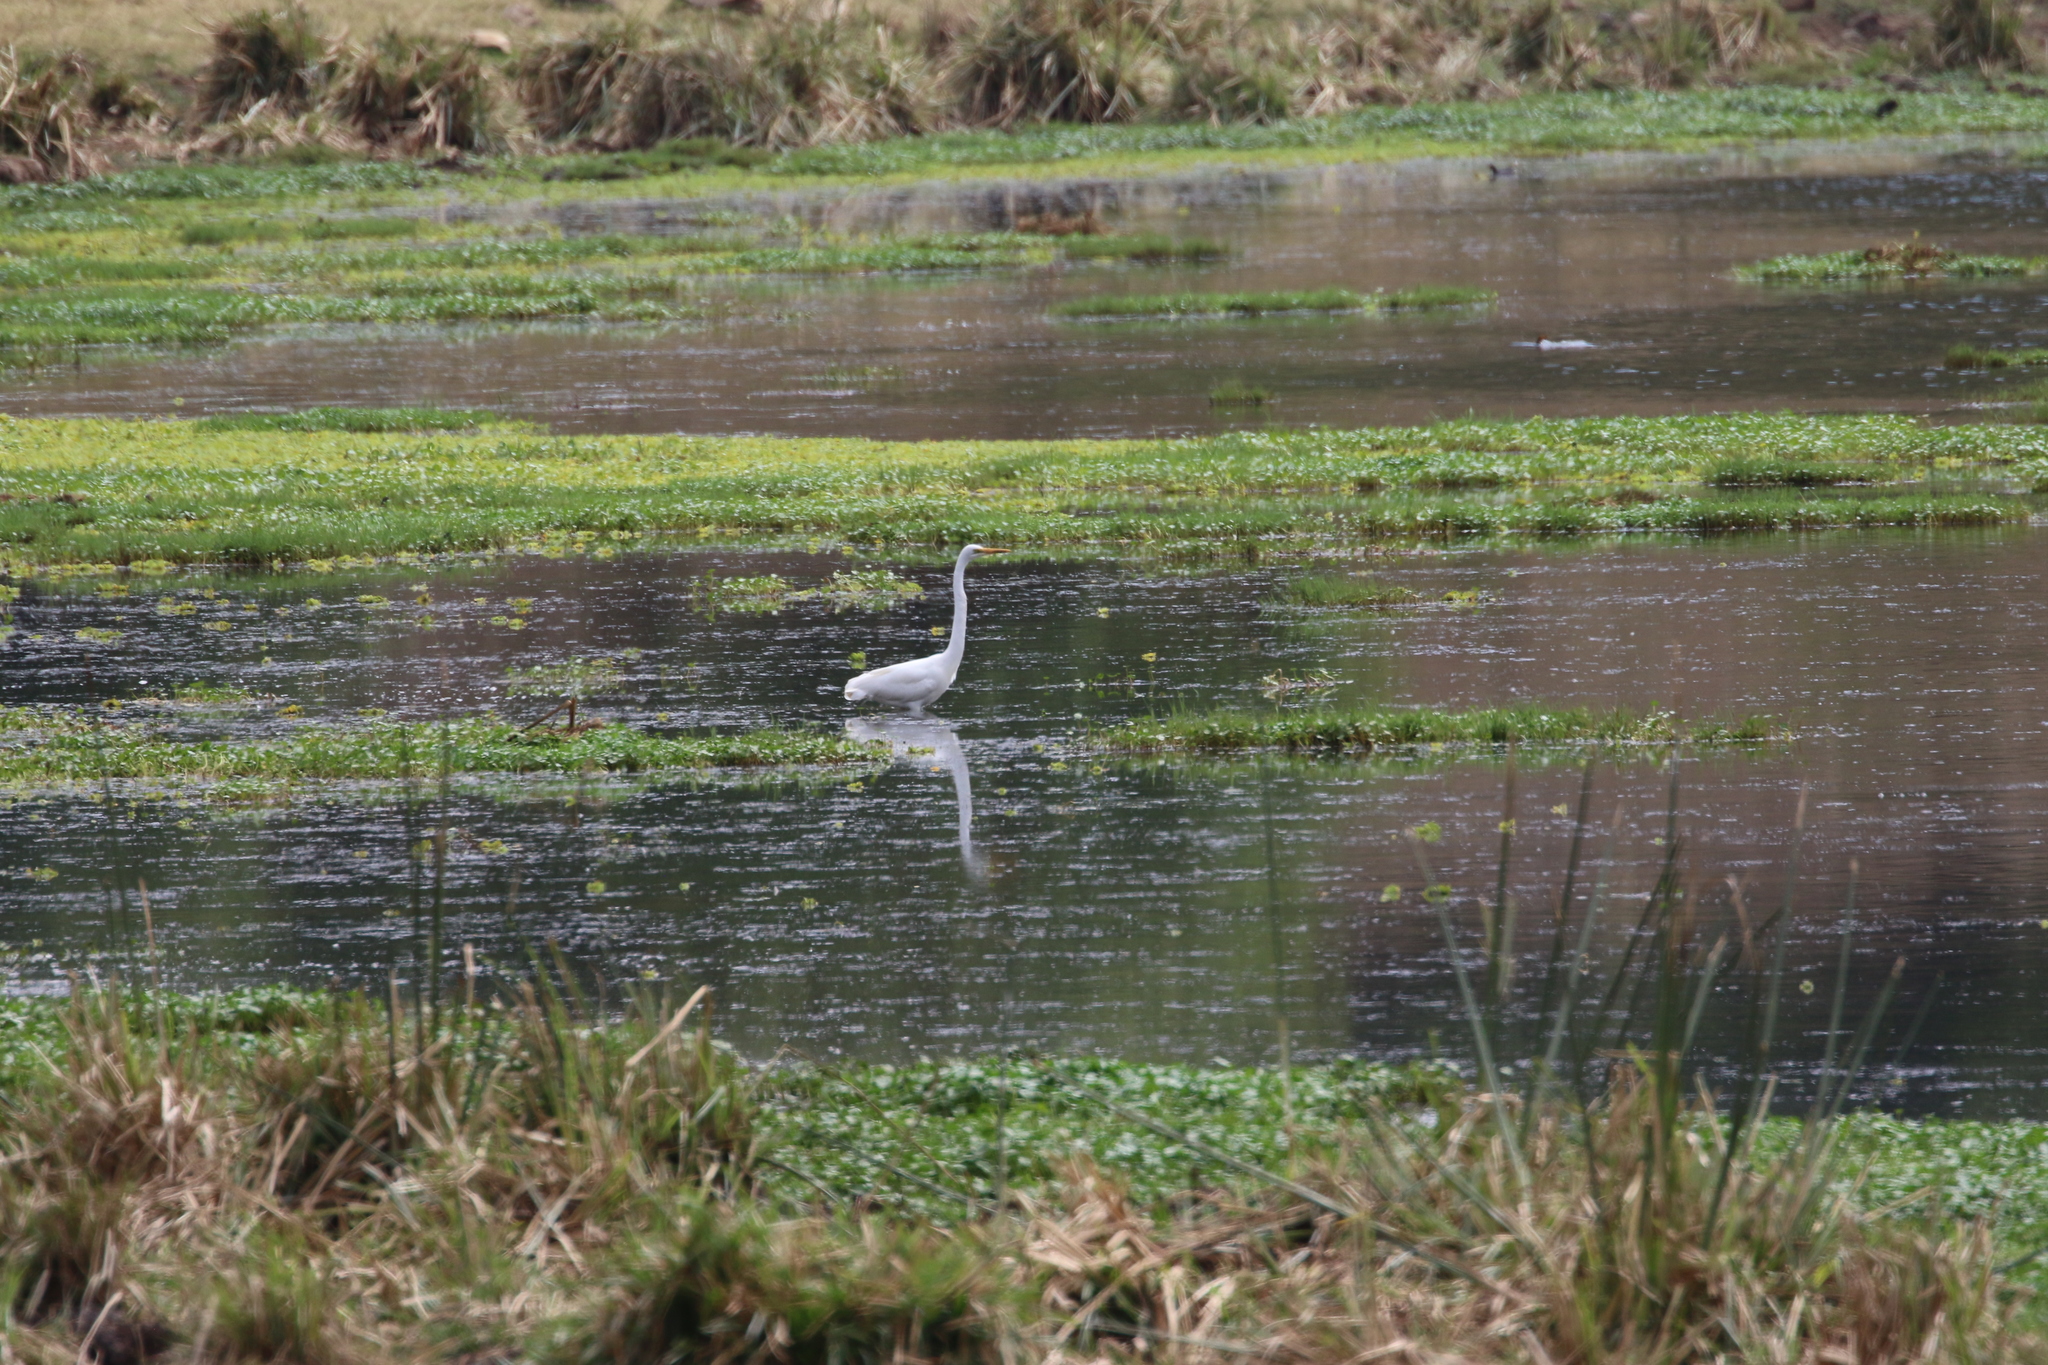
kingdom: Animalia
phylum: Chordata
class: Aves
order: Pelecaniformes
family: Ardeidae
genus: Ardea
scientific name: Ardea alba
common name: Great egret
